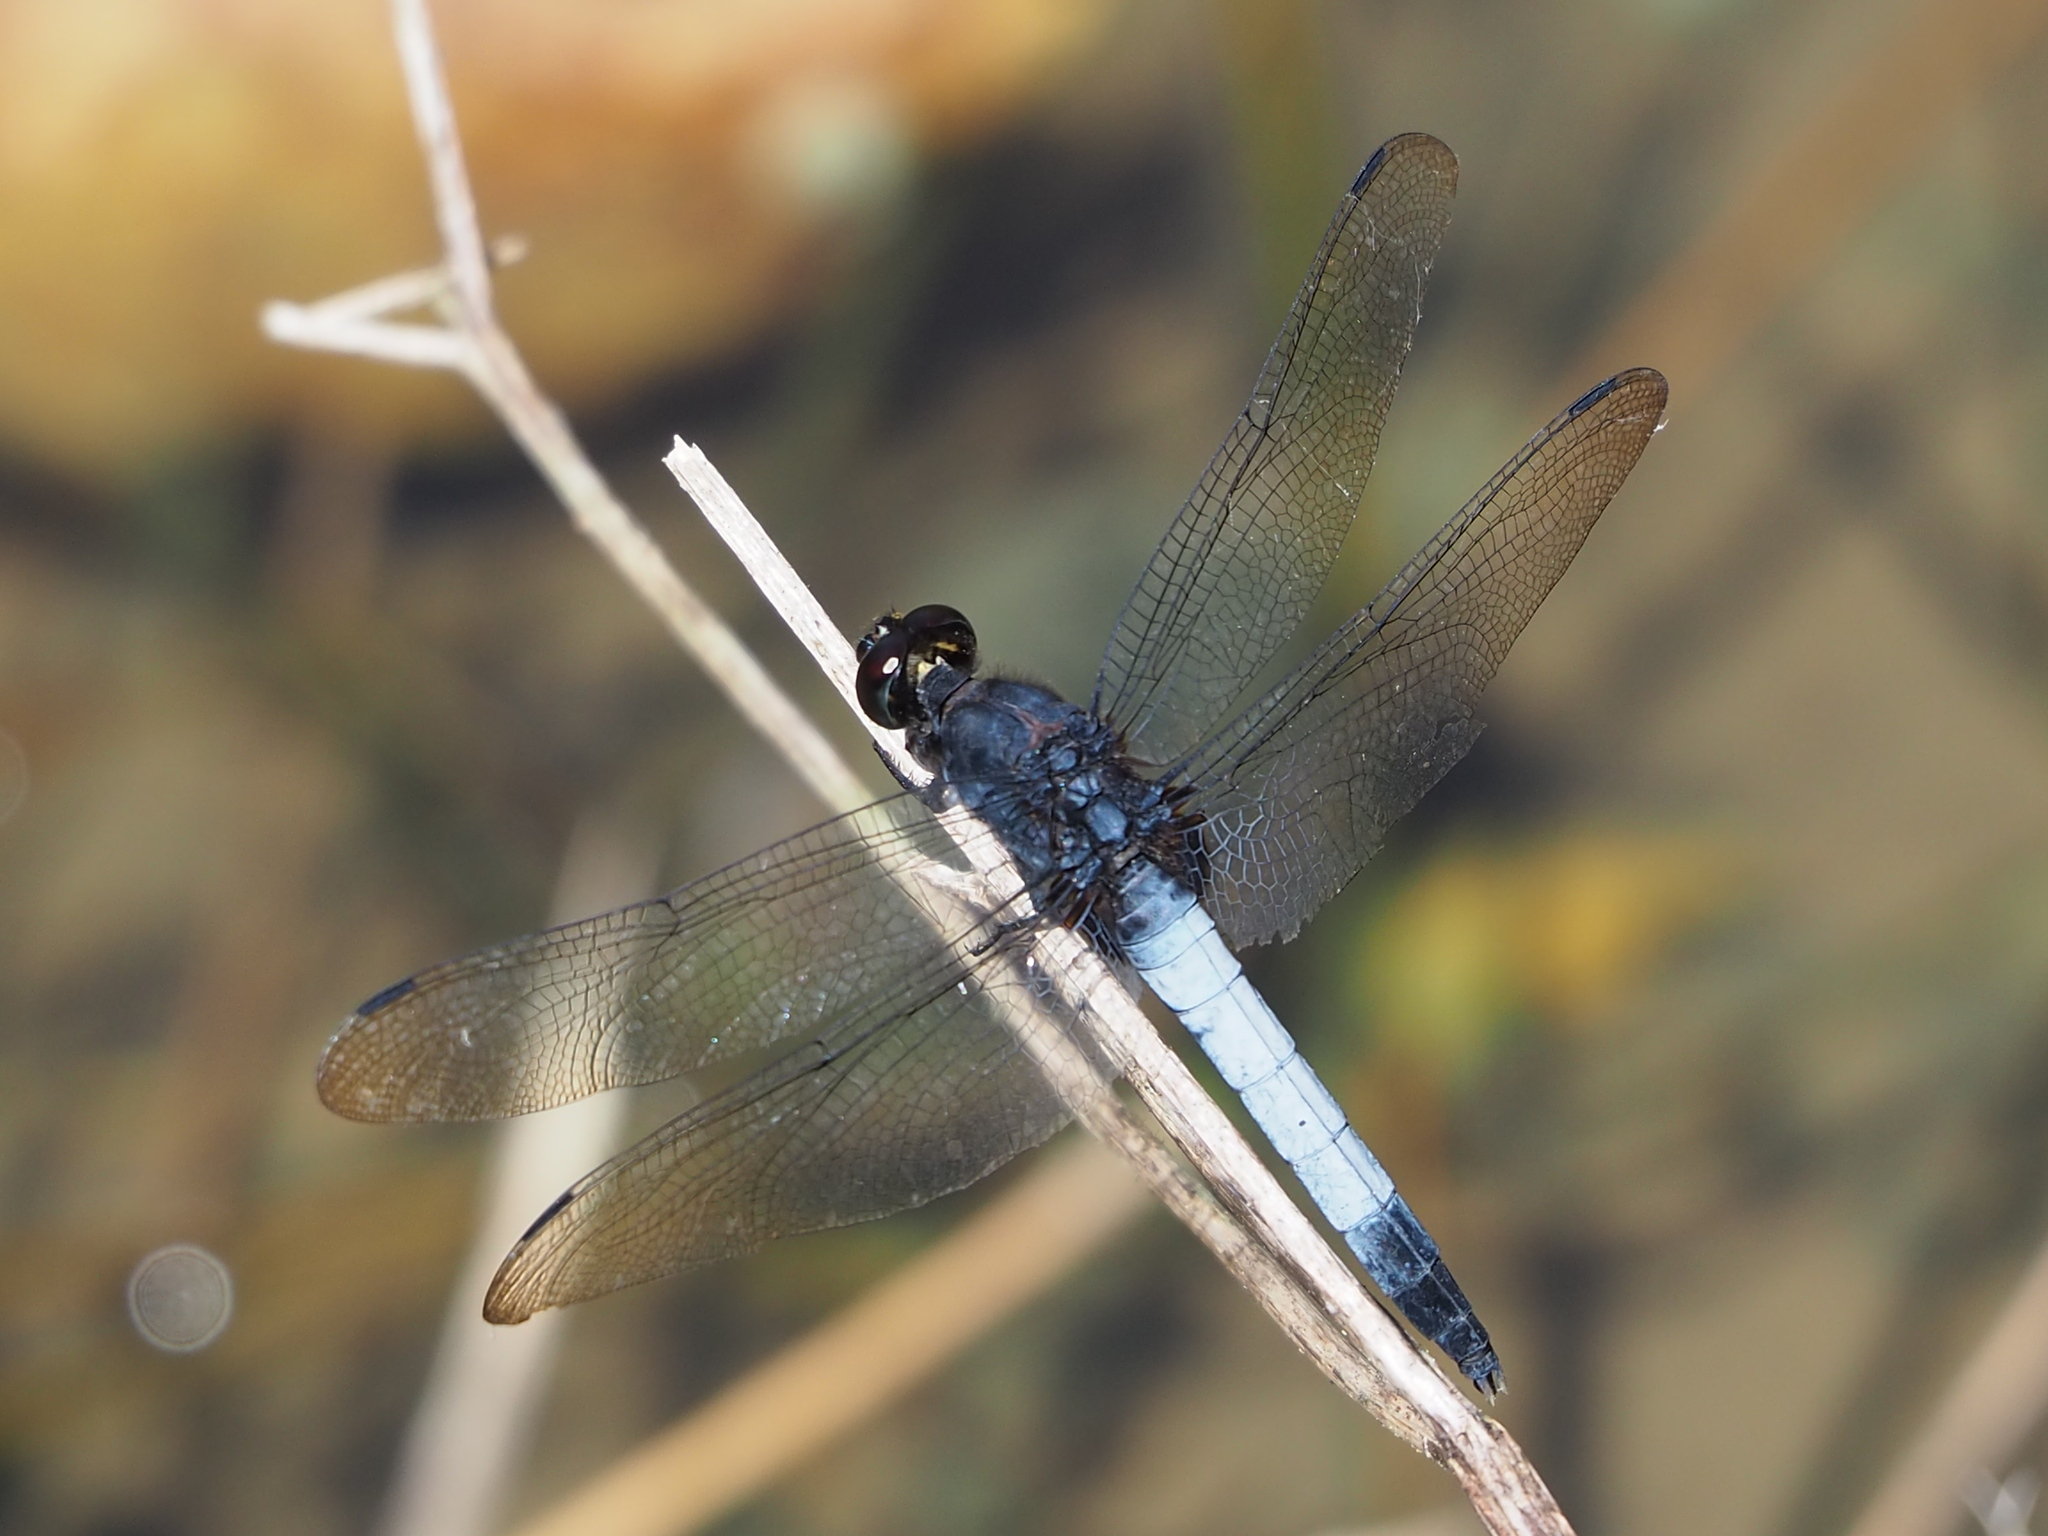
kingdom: Animalia
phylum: Arthropoda
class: Insecta
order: Odonata
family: Libellulidae
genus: Orthetrum
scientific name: Orthetrum triangulare
